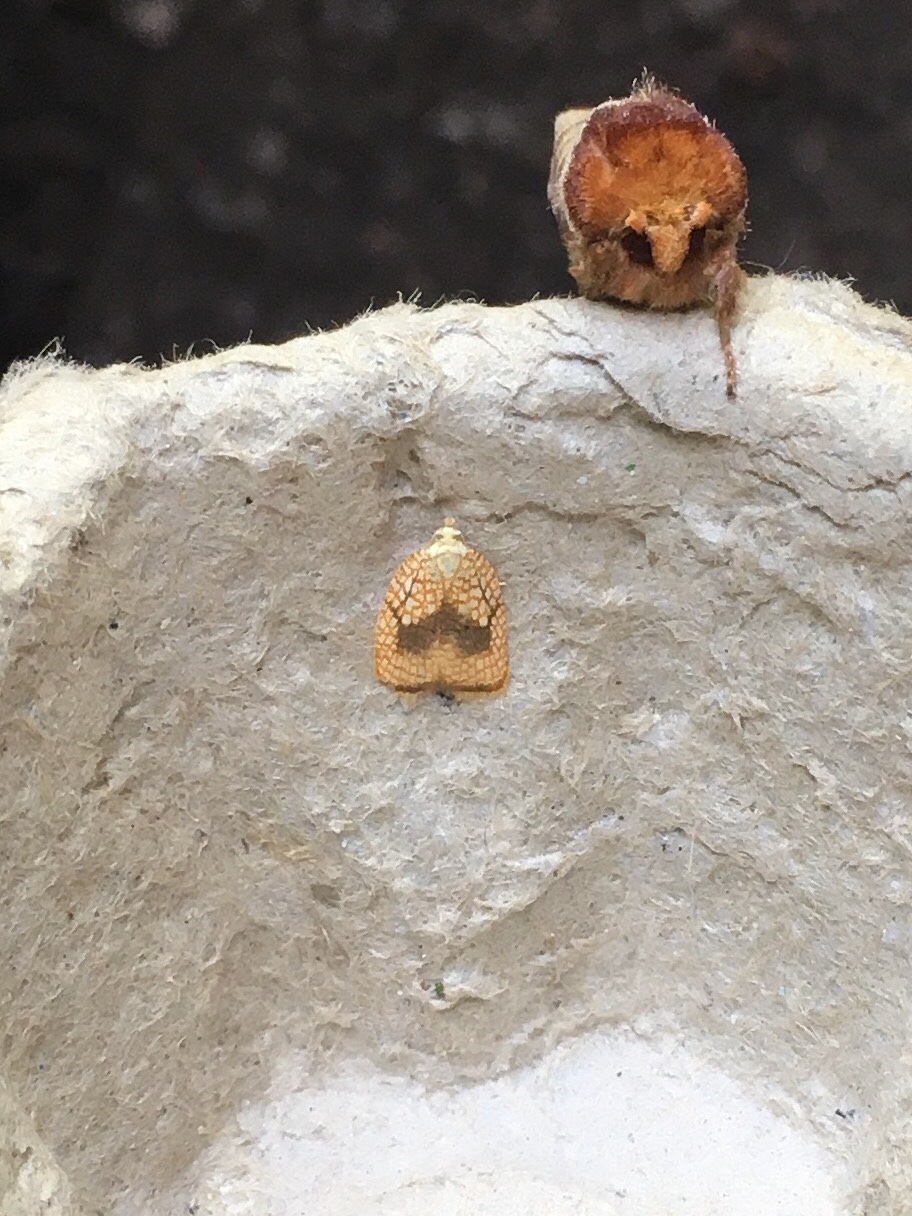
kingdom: Animalia
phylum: Arthropoda
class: Insecta
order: Lepidoptera
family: Tortricidae
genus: Acleris
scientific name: Acleris forsskaleana
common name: Maple button
